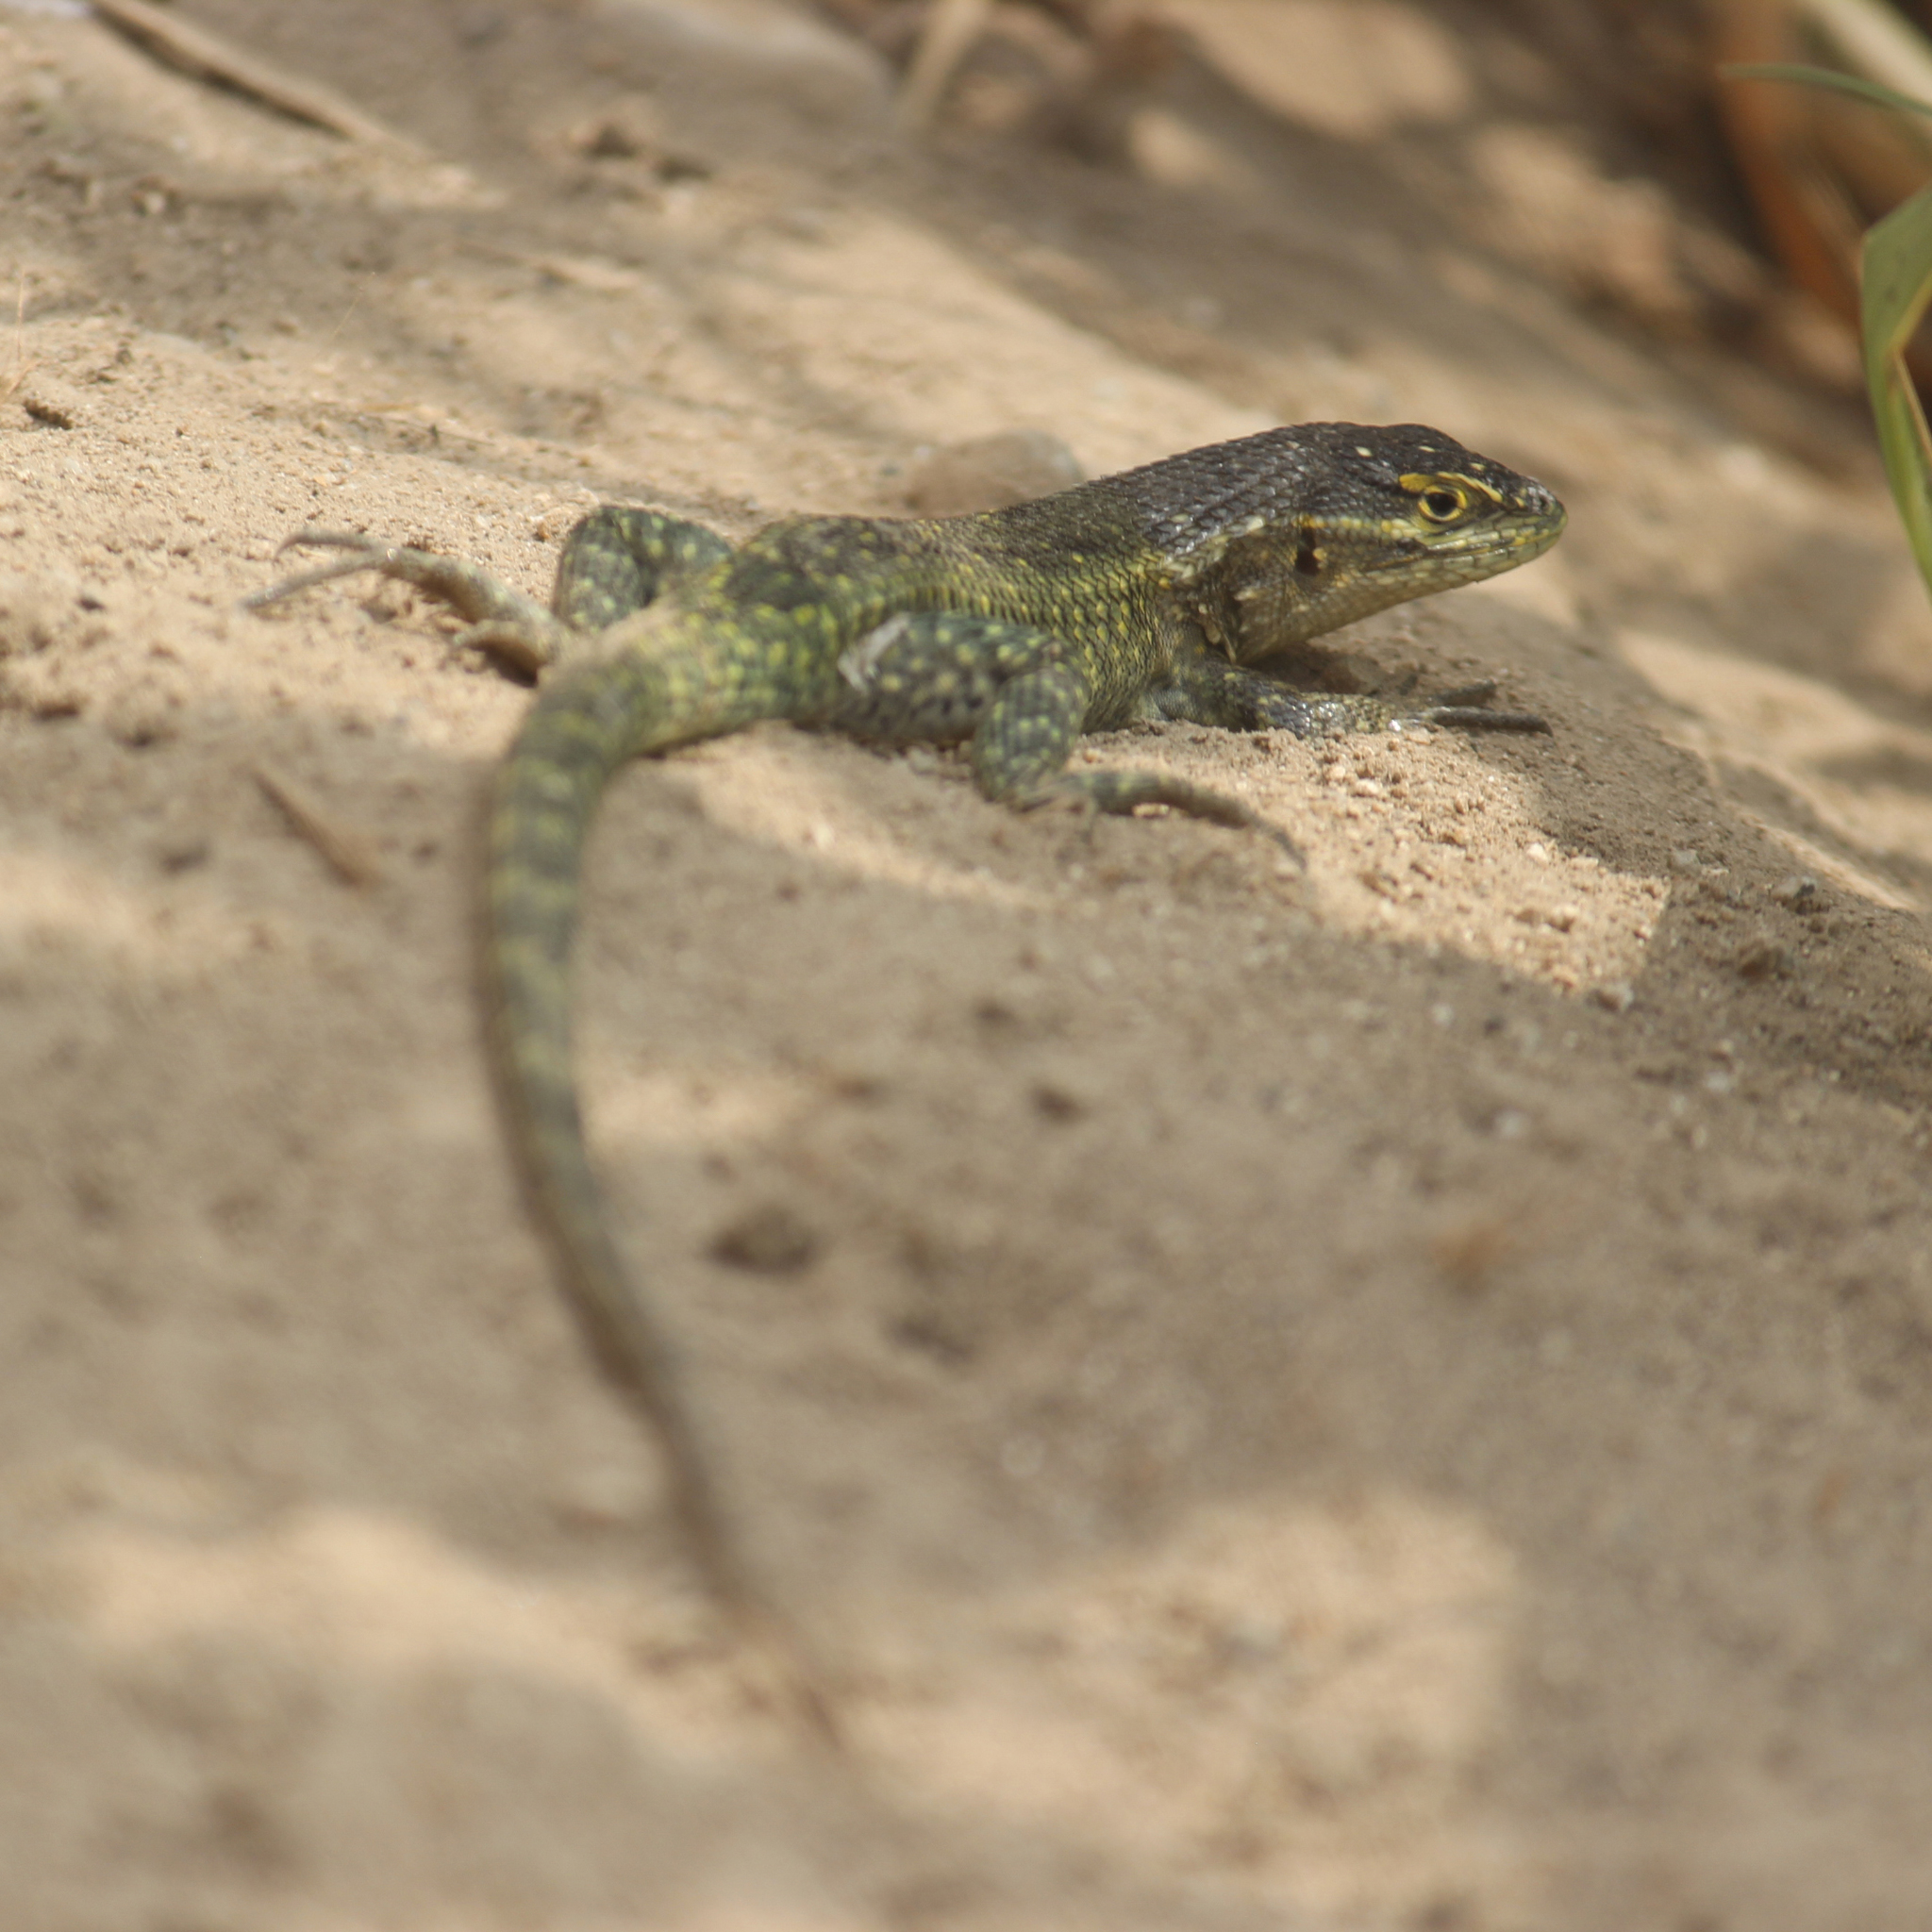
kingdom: Animalia
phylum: Chordata
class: Squamata
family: Tropiduridae
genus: Stenocercus
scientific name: Stenocercus modestus
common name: Modest whorltail iguana
